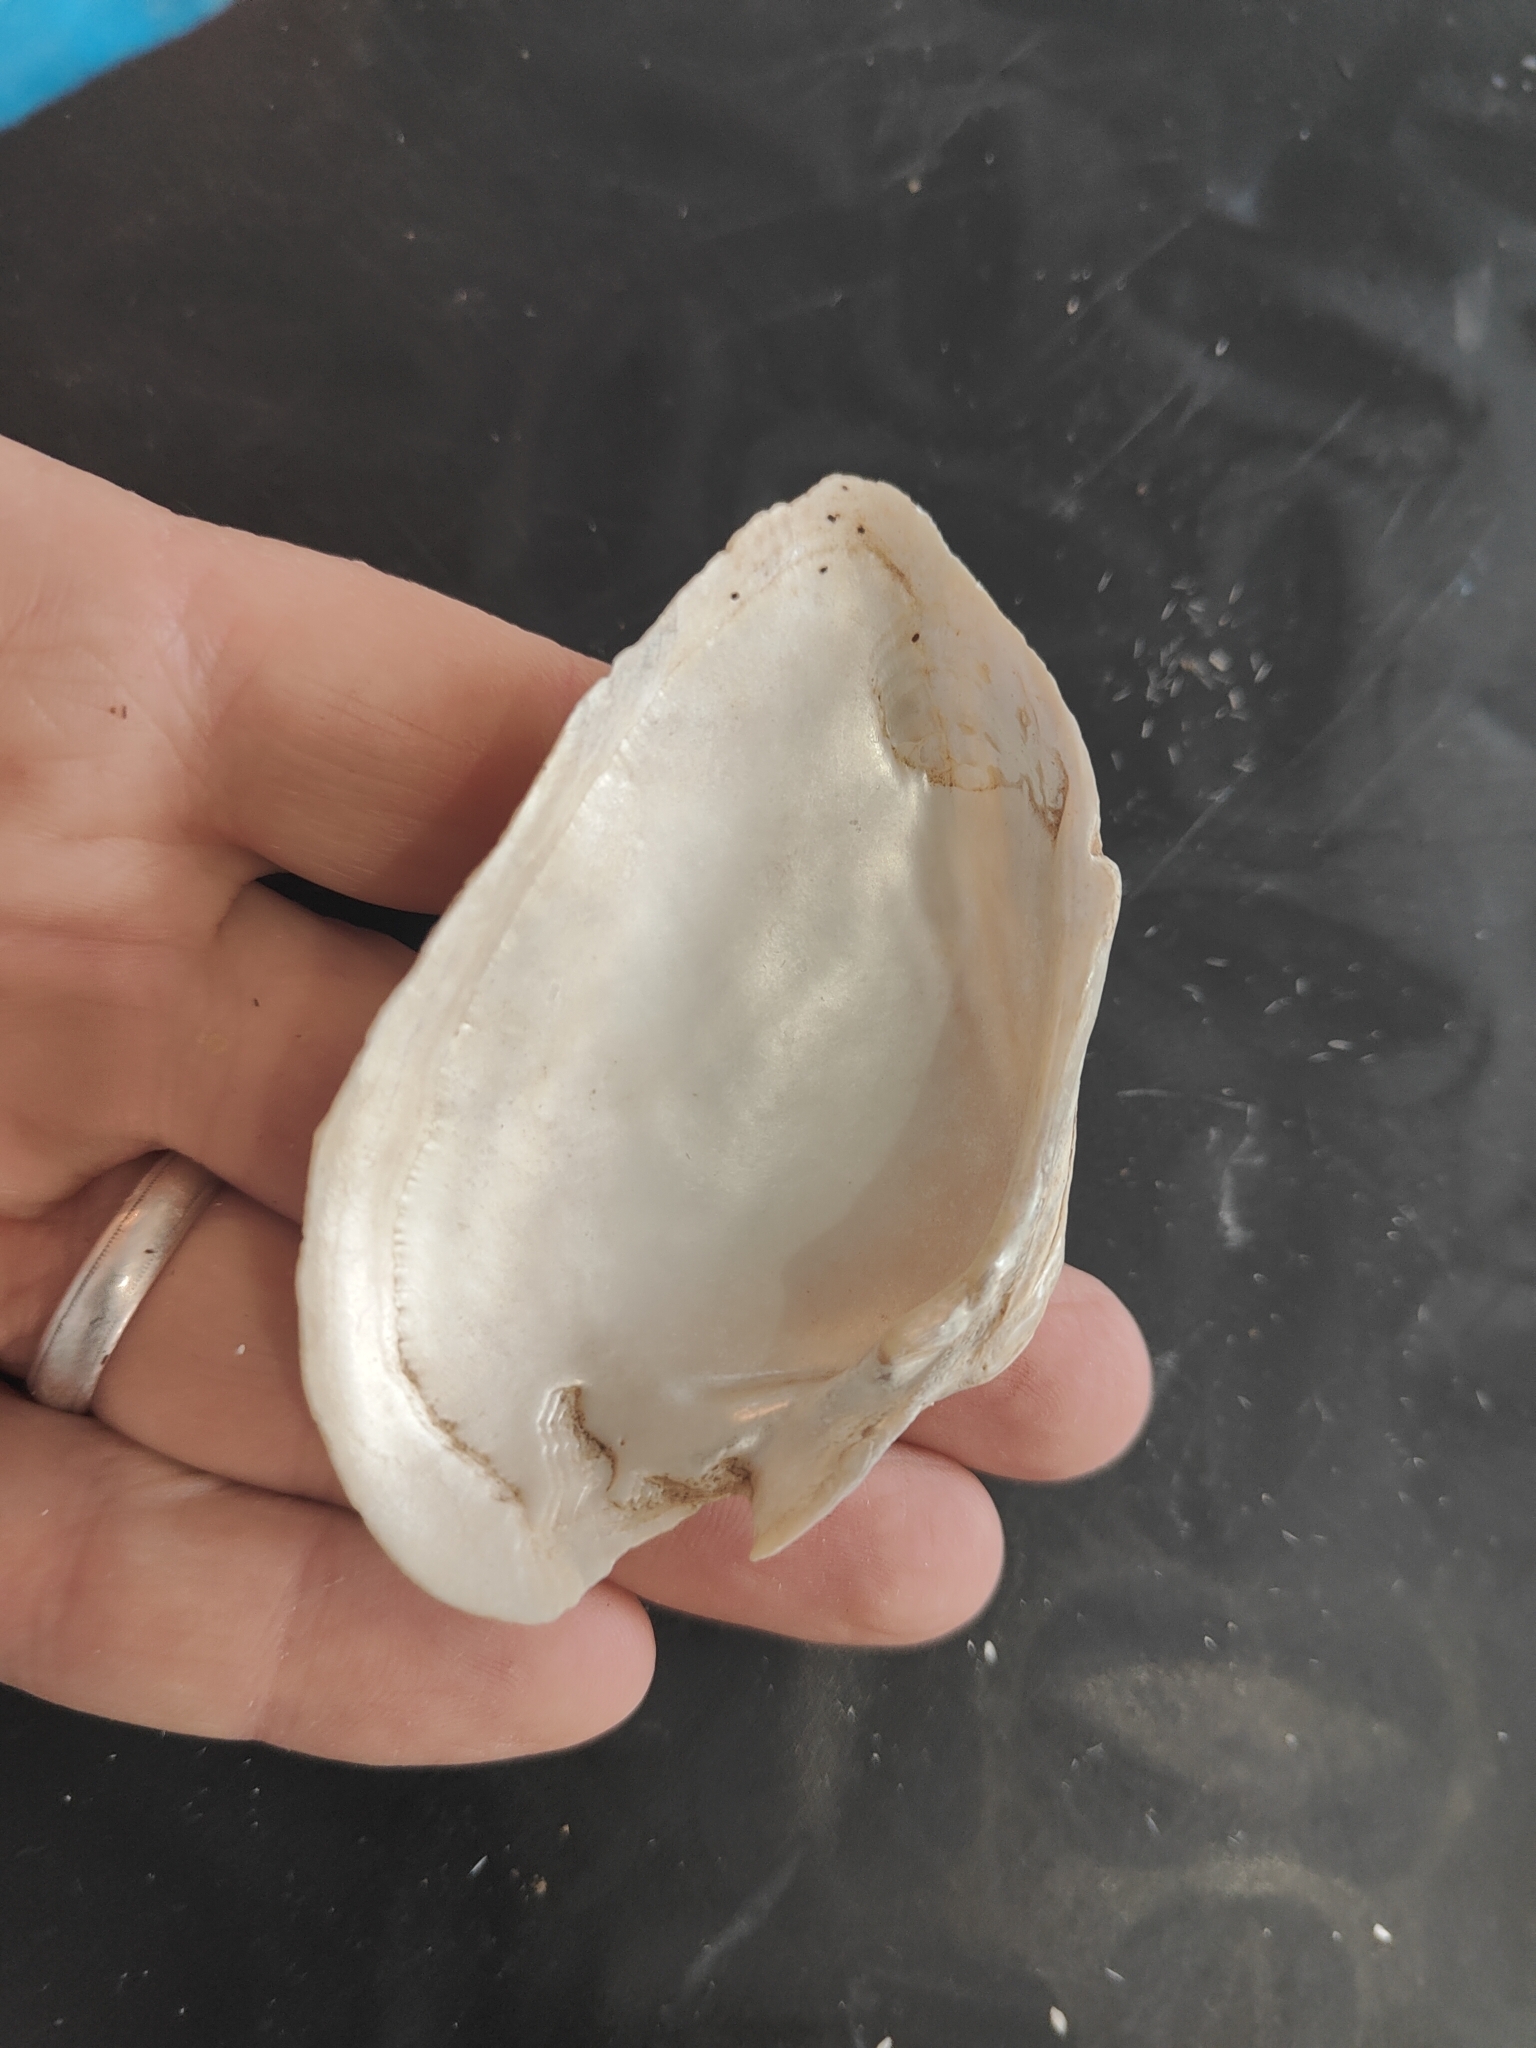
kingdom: Animalia
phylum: Mollusca
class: Bivalvia
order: Unionida
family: Unionidae
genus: Alasmidonta
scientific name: Alasmidonta marginata
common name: Elktoe
